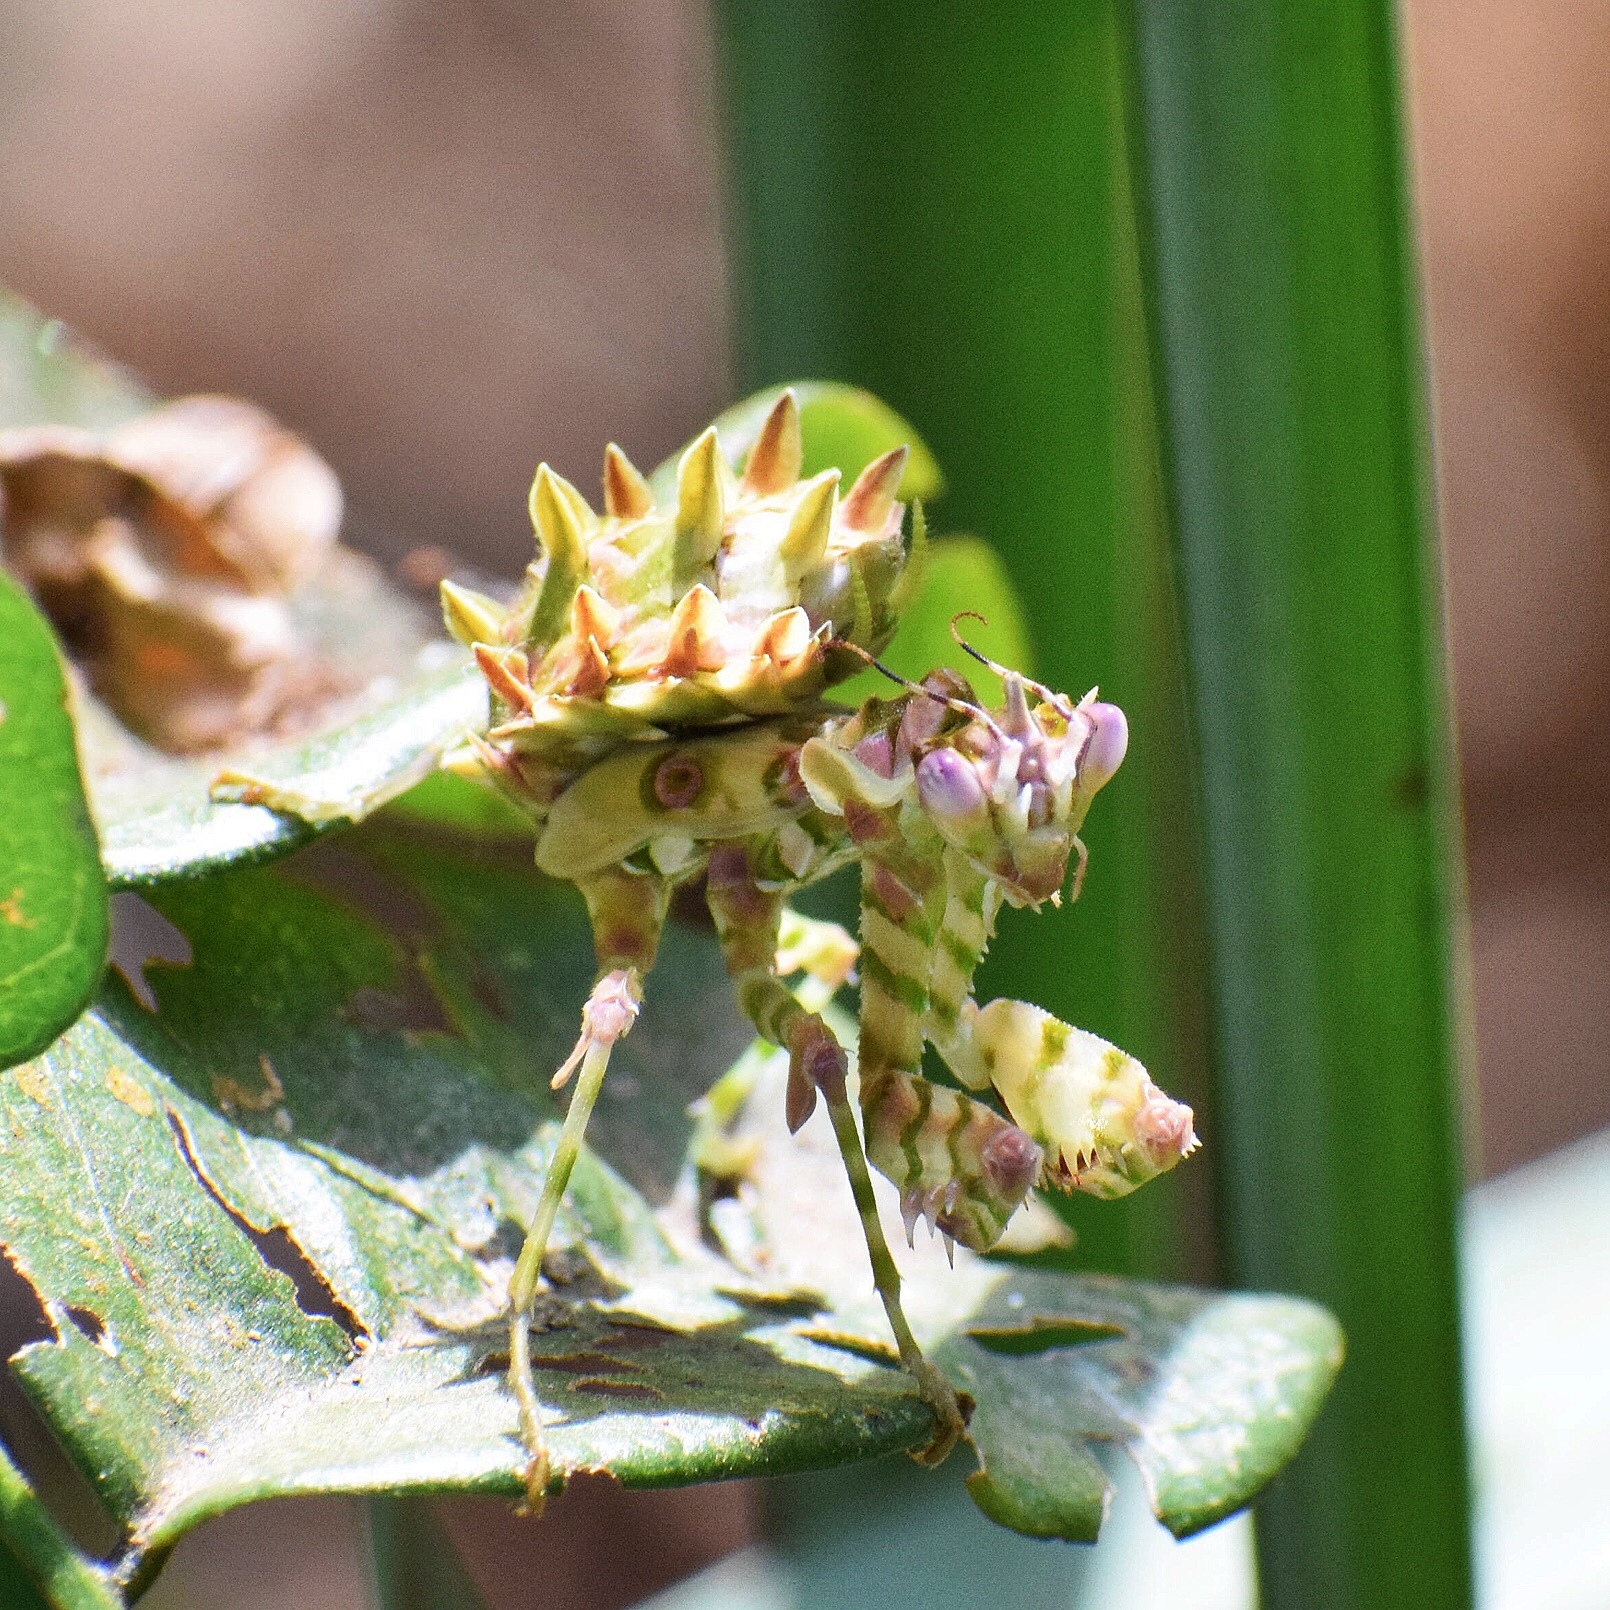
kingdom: Animalia
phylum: Arthropoda
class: Insecta
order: Mantodea
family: Hymenopodidae
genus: Pseudocreobotra
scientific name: Pseudocreobotra wahlbergi
